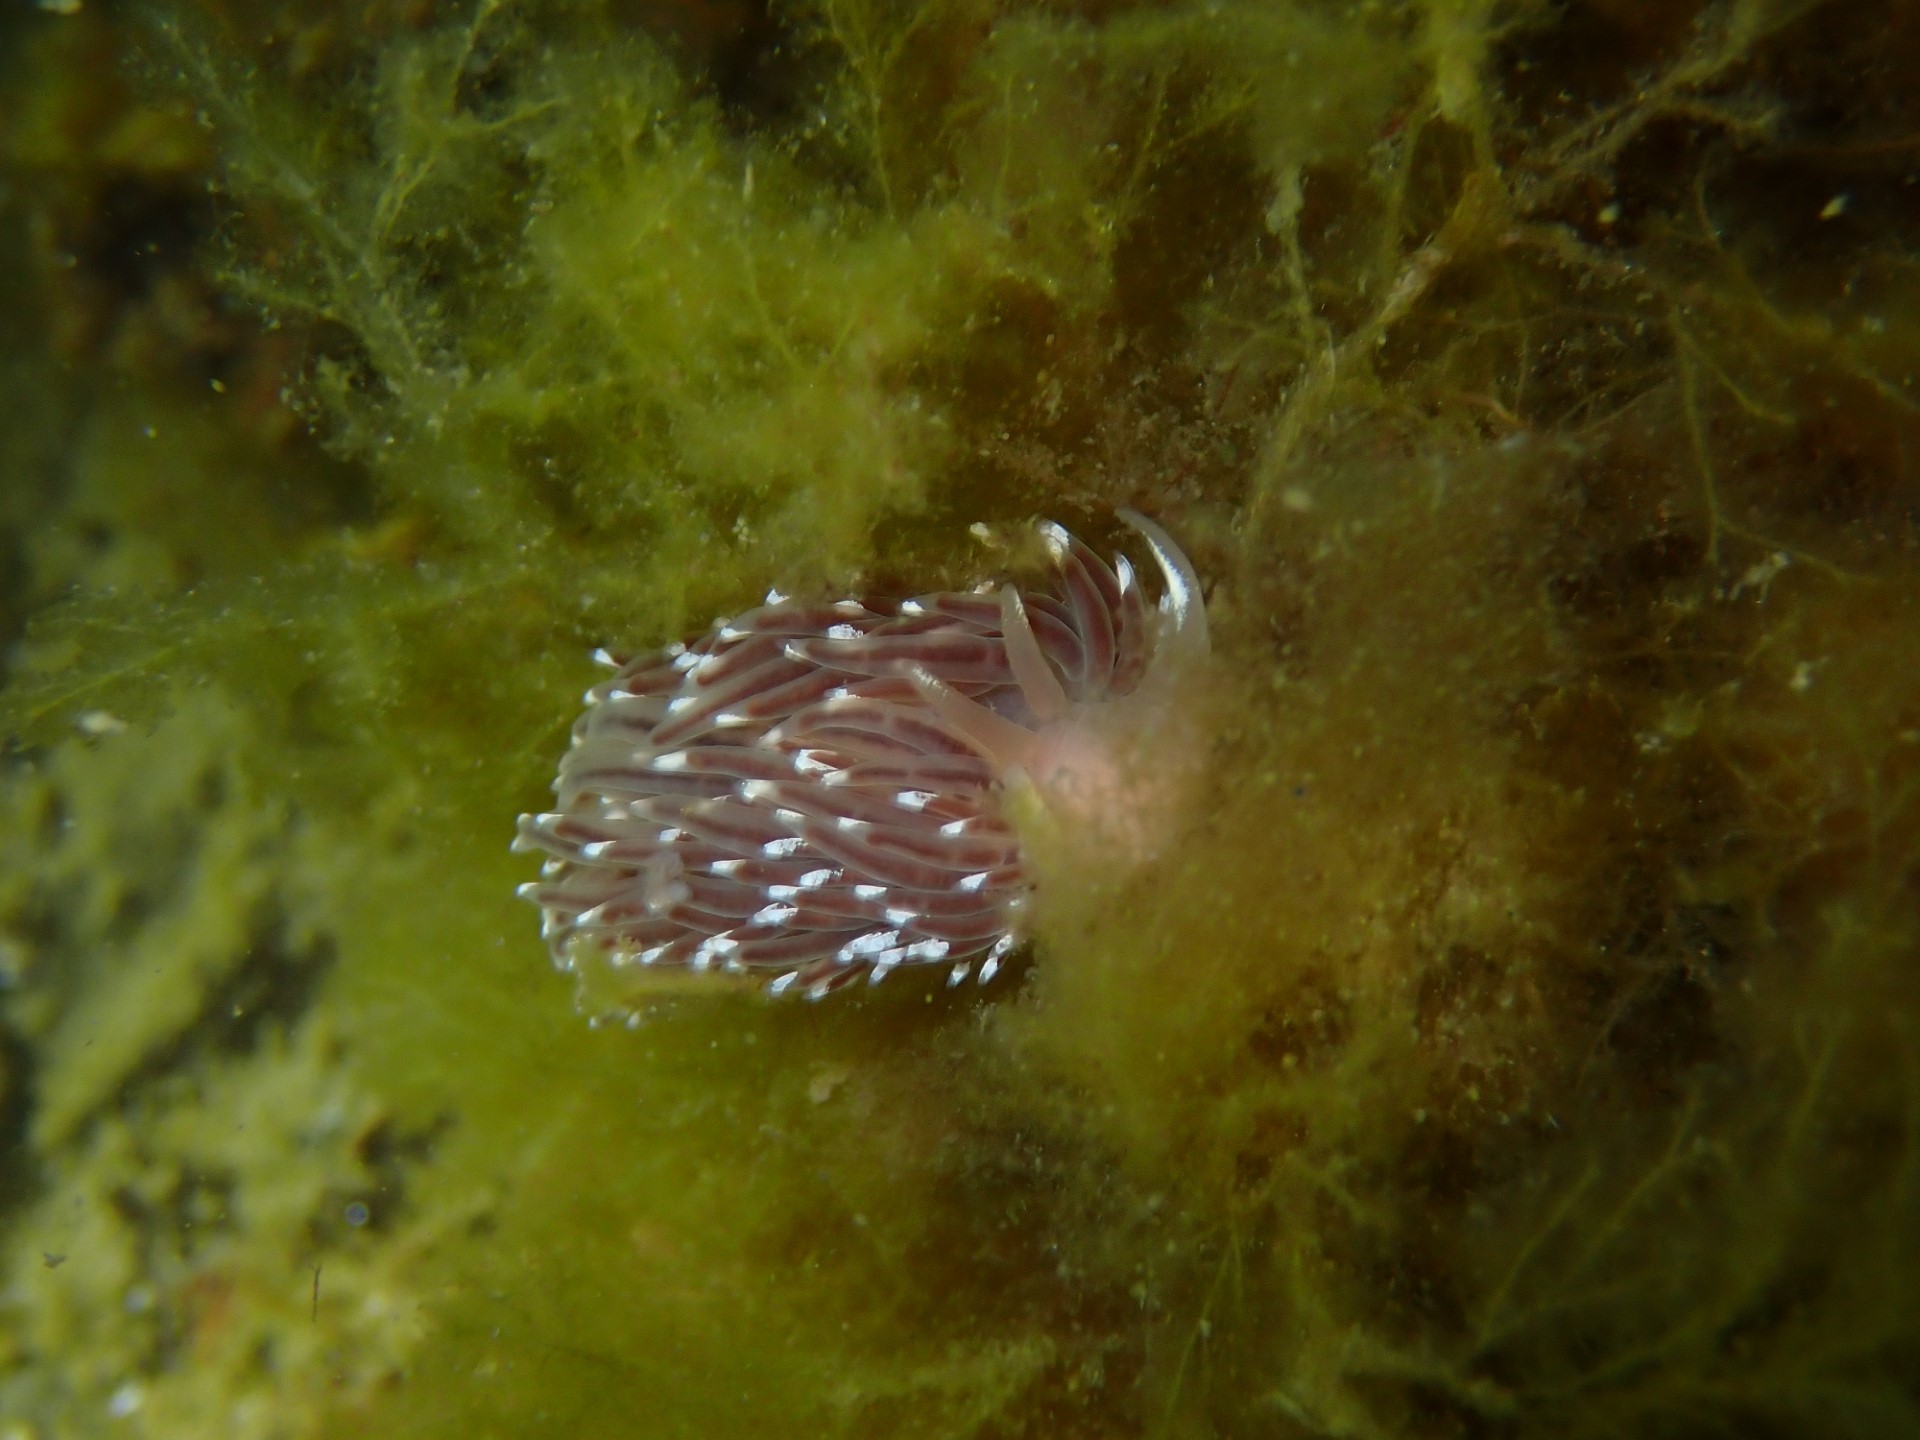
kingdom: Animalia
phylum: Mollusca
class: Gastropoda
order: Nudibranchia
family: Facelinidae
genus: Facelina
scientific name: Facelina bostoniensis
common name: Boston facelina
